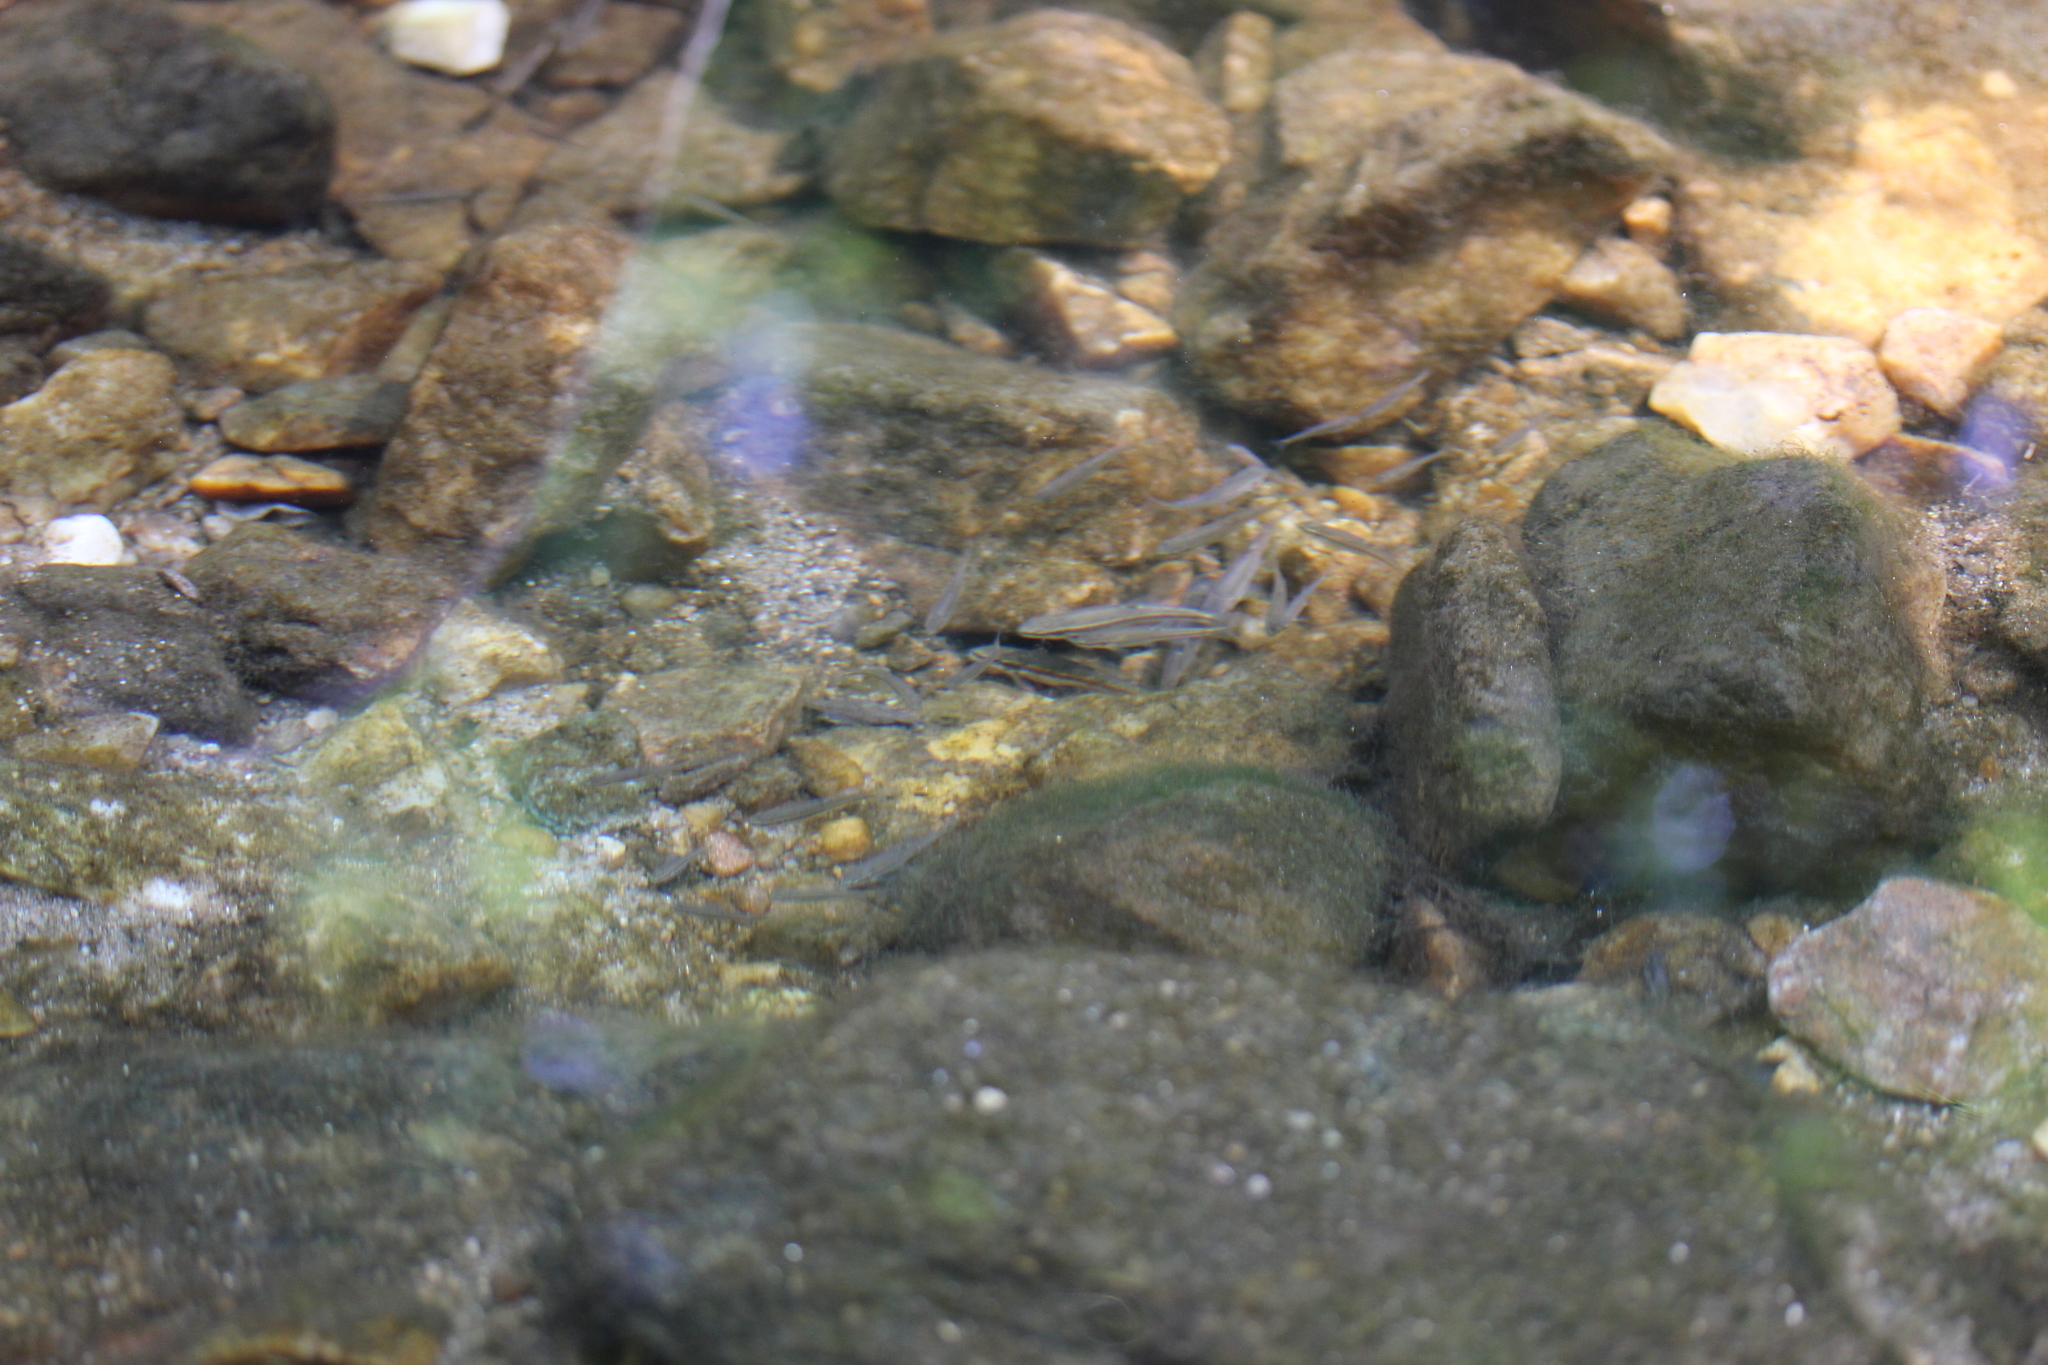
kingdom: Animalia
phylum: Chordata
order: Cypriniformes
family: Cyprinidae
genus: Rhinichthys
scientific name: Rhinichthys atratulus
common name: Eastern blacknose dace
